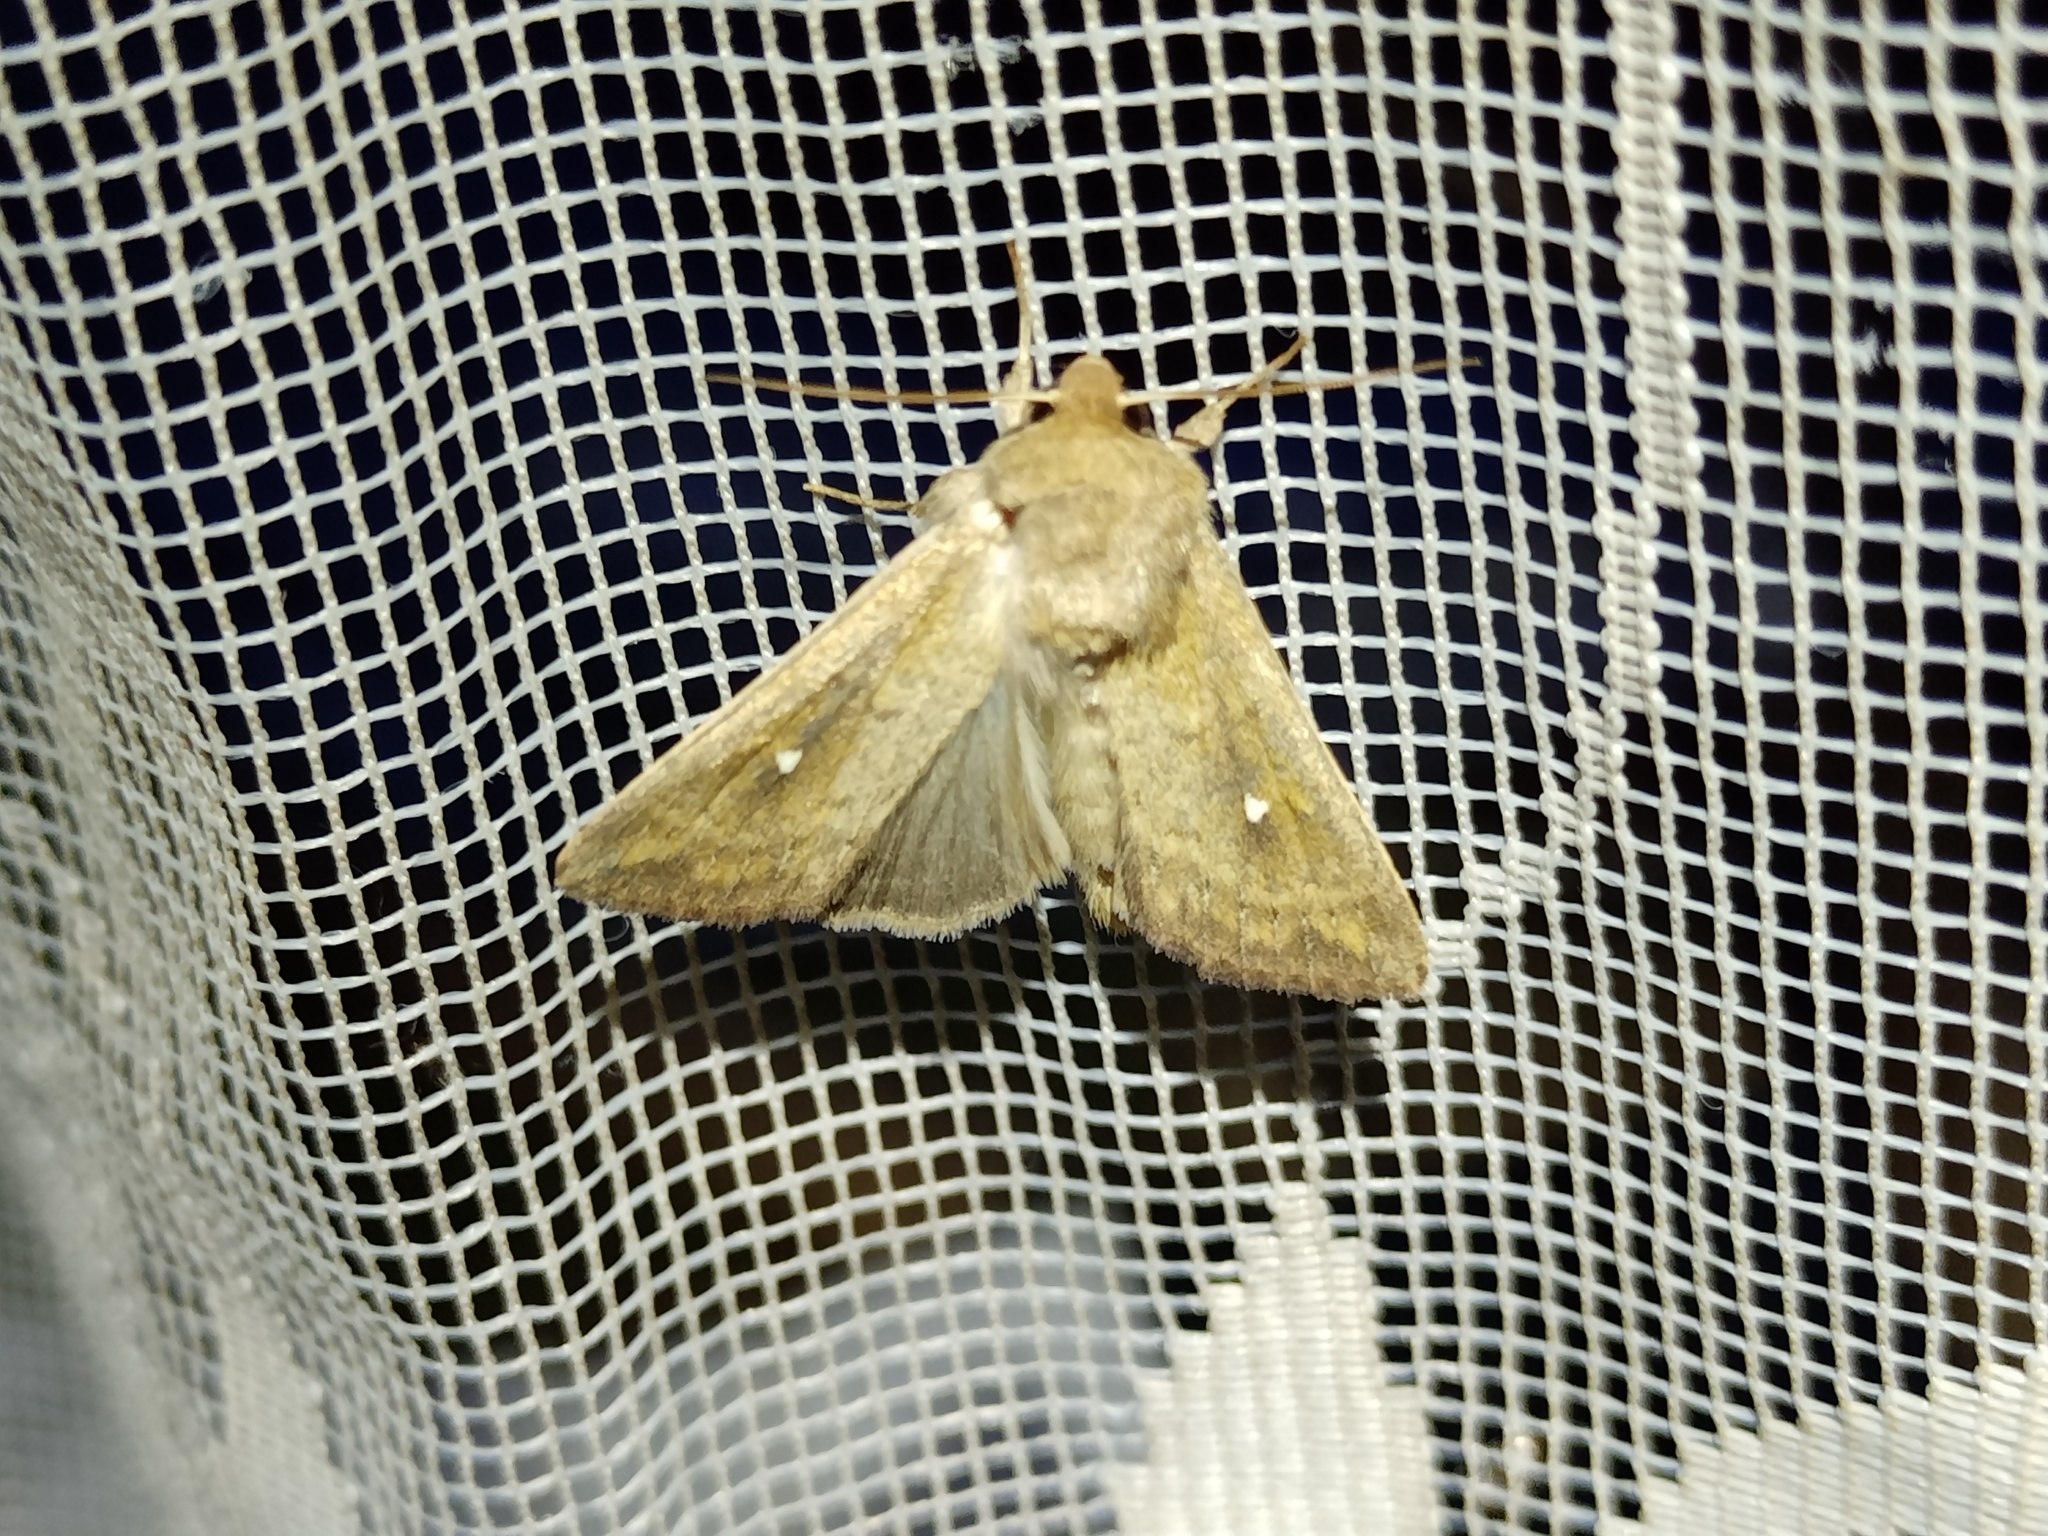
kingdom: Animalia
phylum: Arthropoda
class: Insecta
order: Lepidoptera
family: Noctuidae
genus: Mythimna
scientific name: Mythimna albipuncta
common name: White-point
